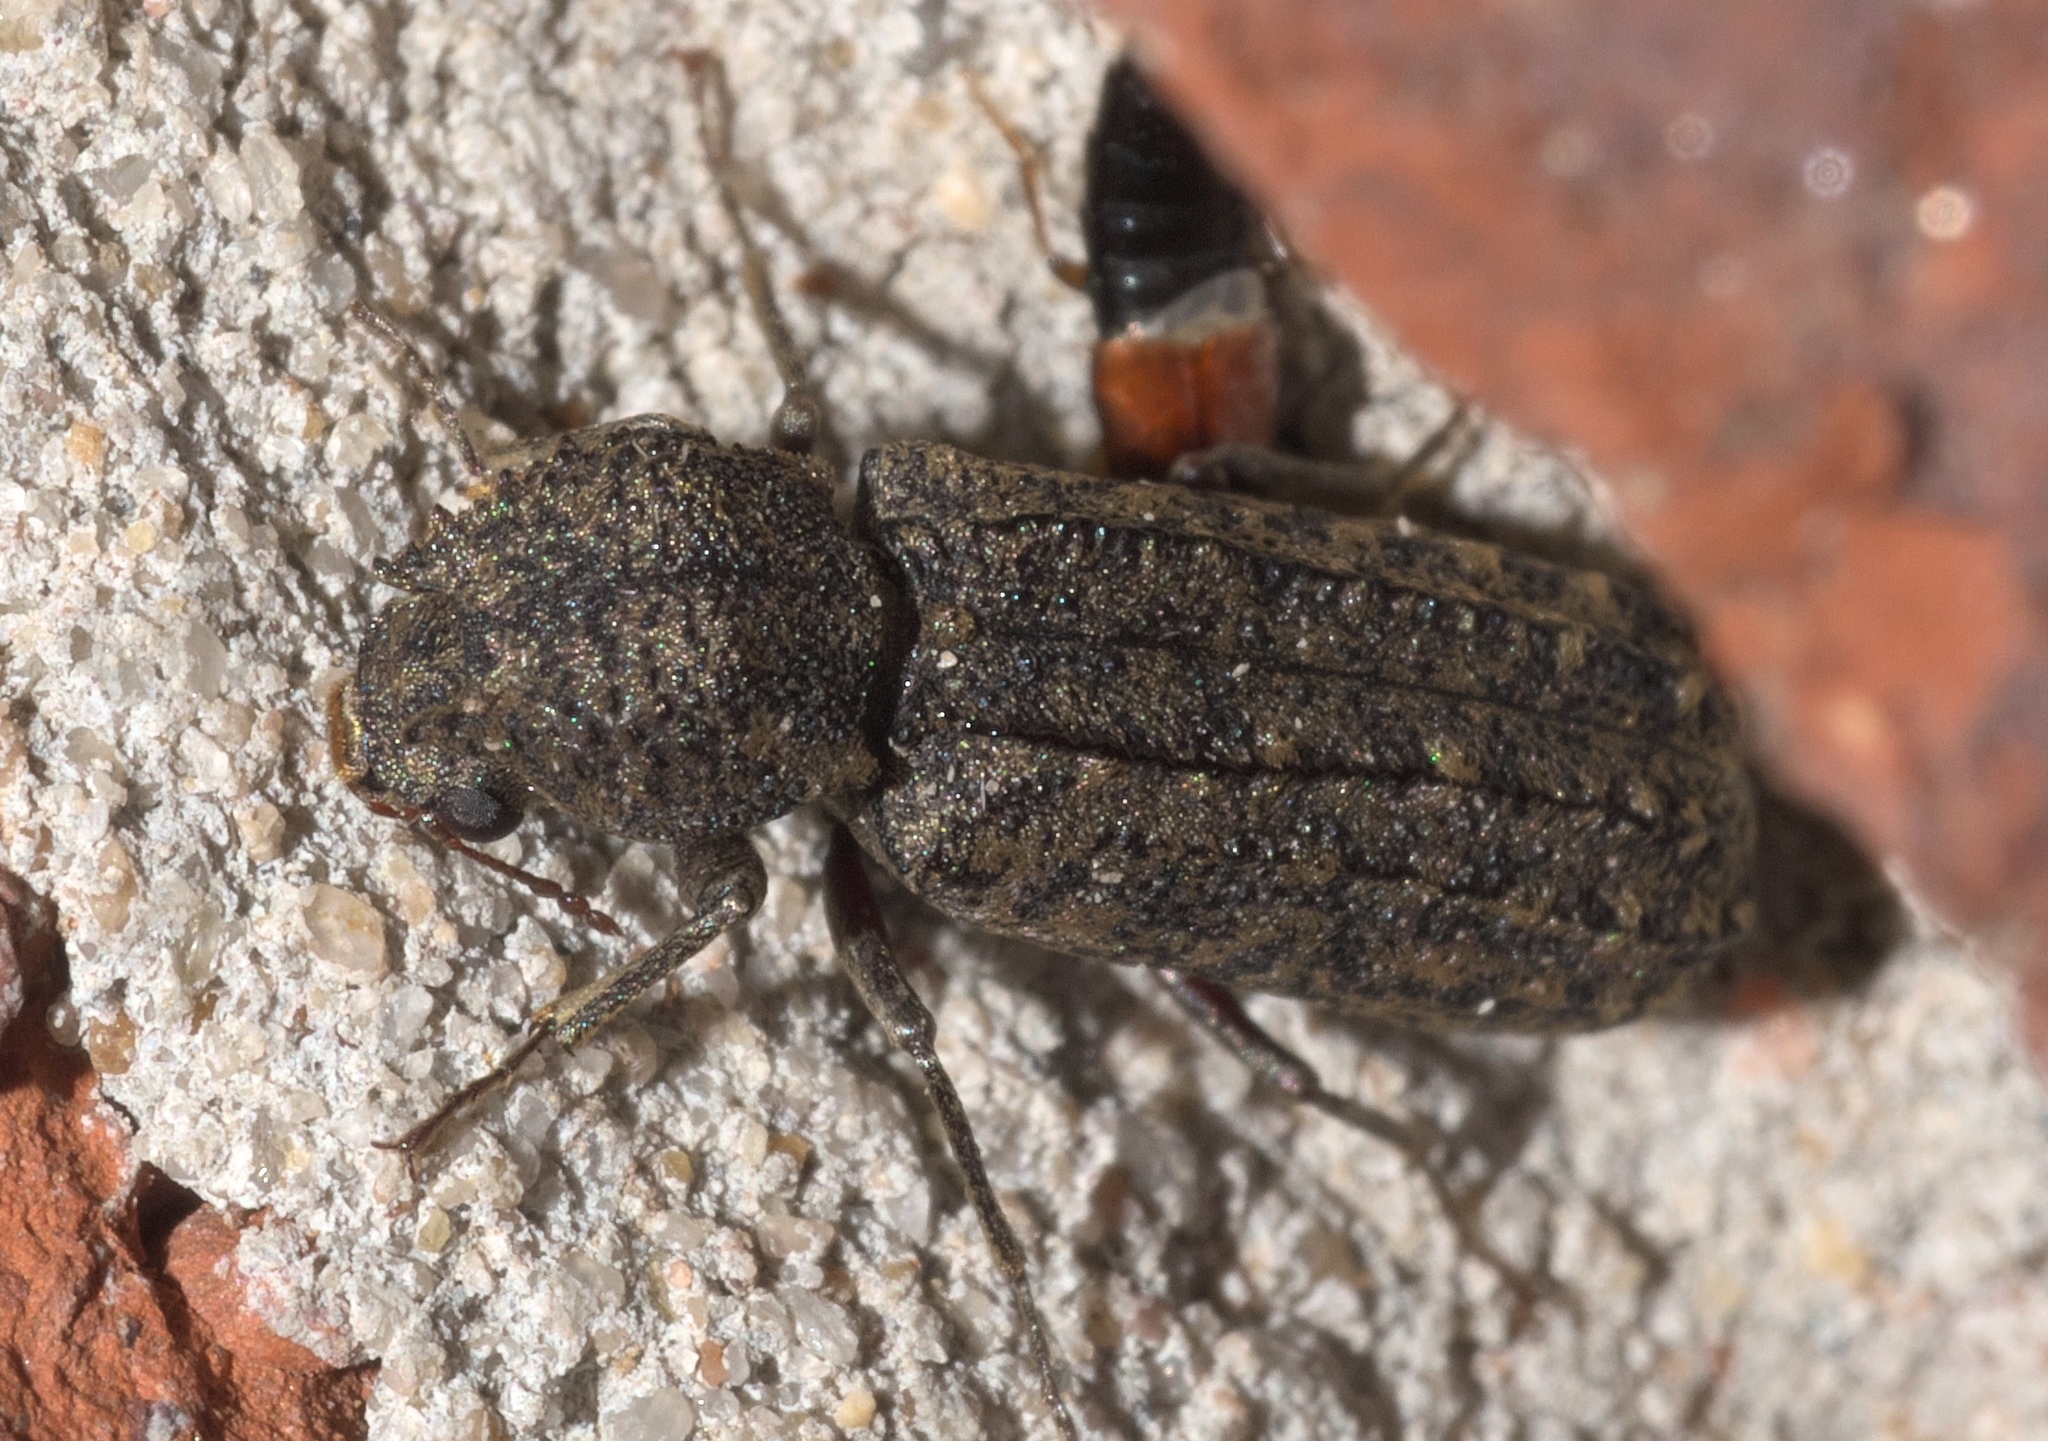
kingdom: Animalia
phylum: Arthropoda
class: Insecta
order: Coleoptera
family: Bostrichidae
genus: Lichenophanes
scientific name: Lichenophanes bicornis
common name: Two-horned powder-post beetle
